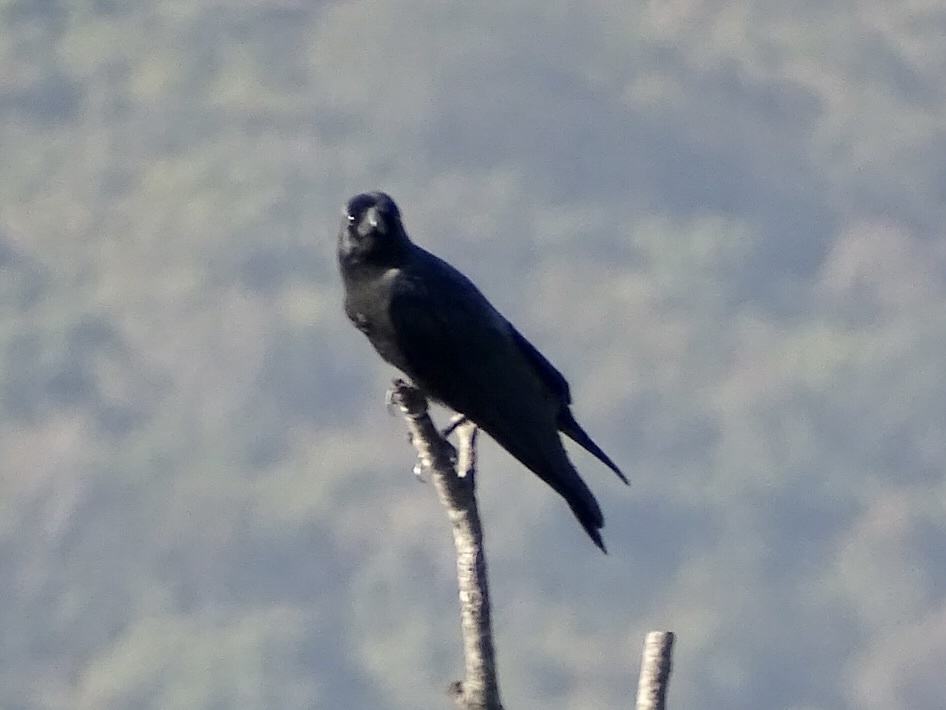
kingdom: Animalia
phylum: Chordata
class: Aves
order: Passeriformes
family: Corvidae
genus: Corvus
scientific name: Corvus macrorhynchos
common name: Large-billed crow
